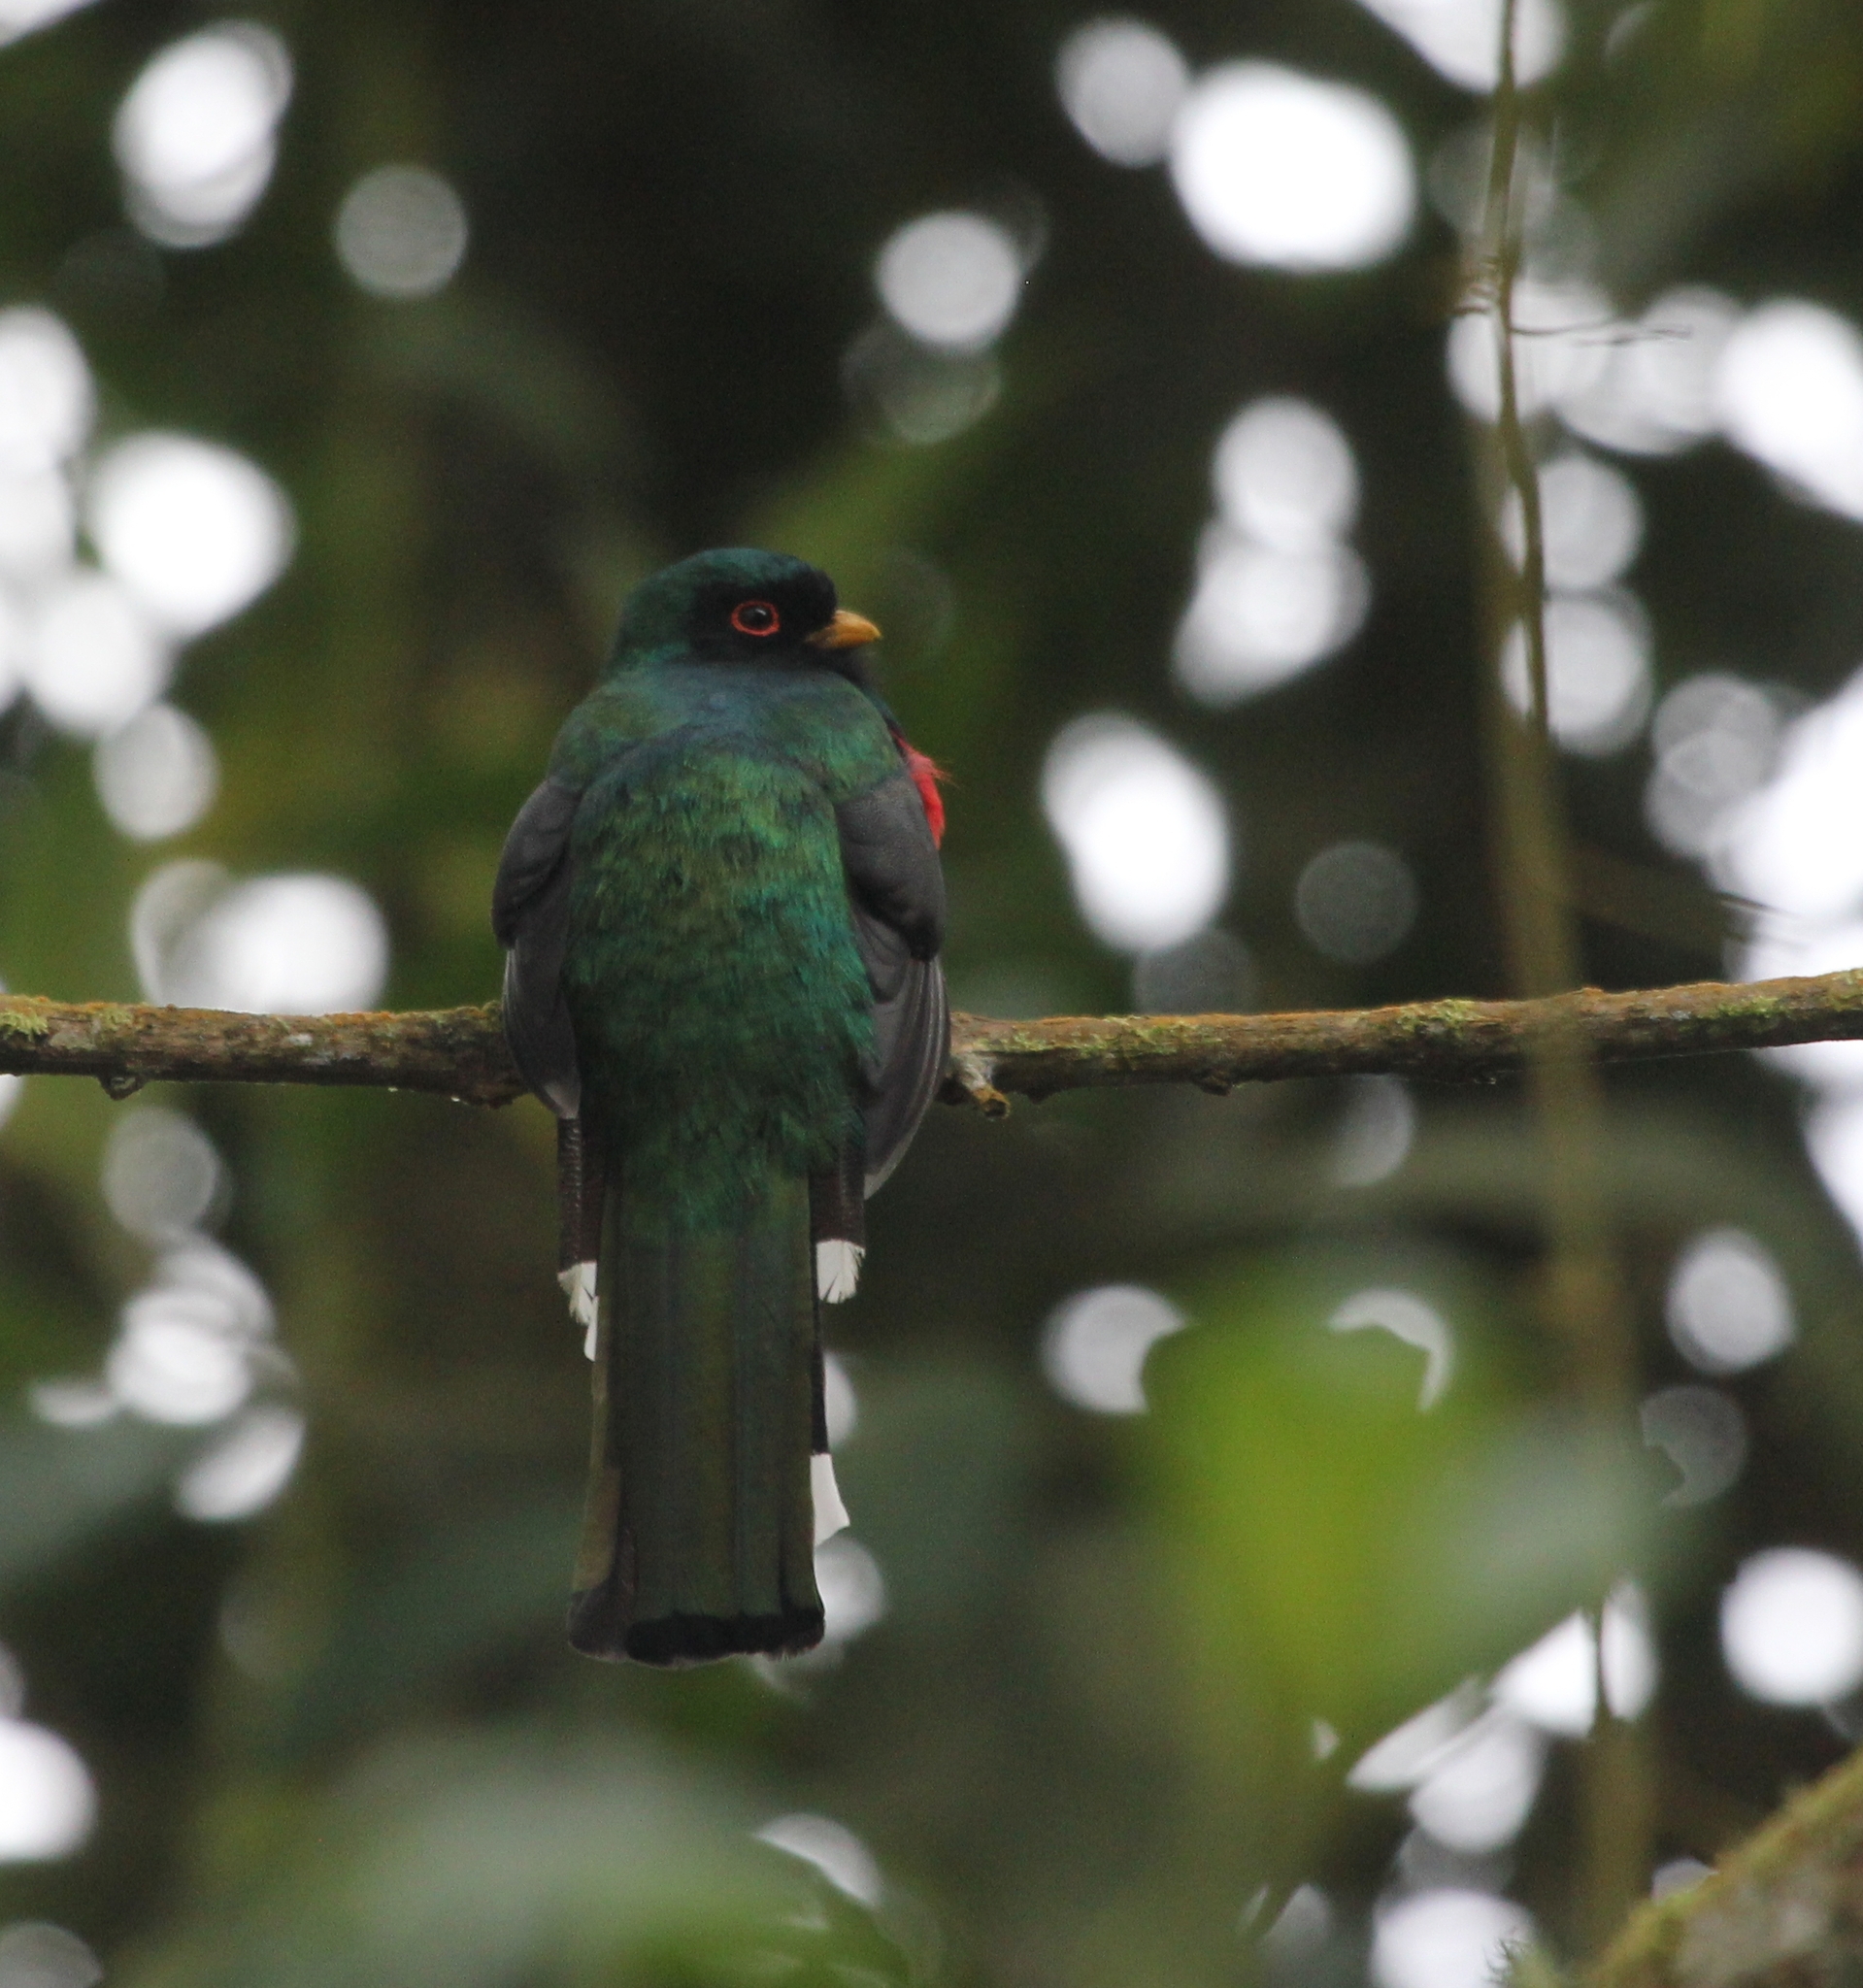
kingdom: Animalia
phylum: Chordata
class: Aves
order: Trogoniformes
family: Trogonidae
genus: Trogon
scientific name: Trogon personatus
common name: Masked trogon
